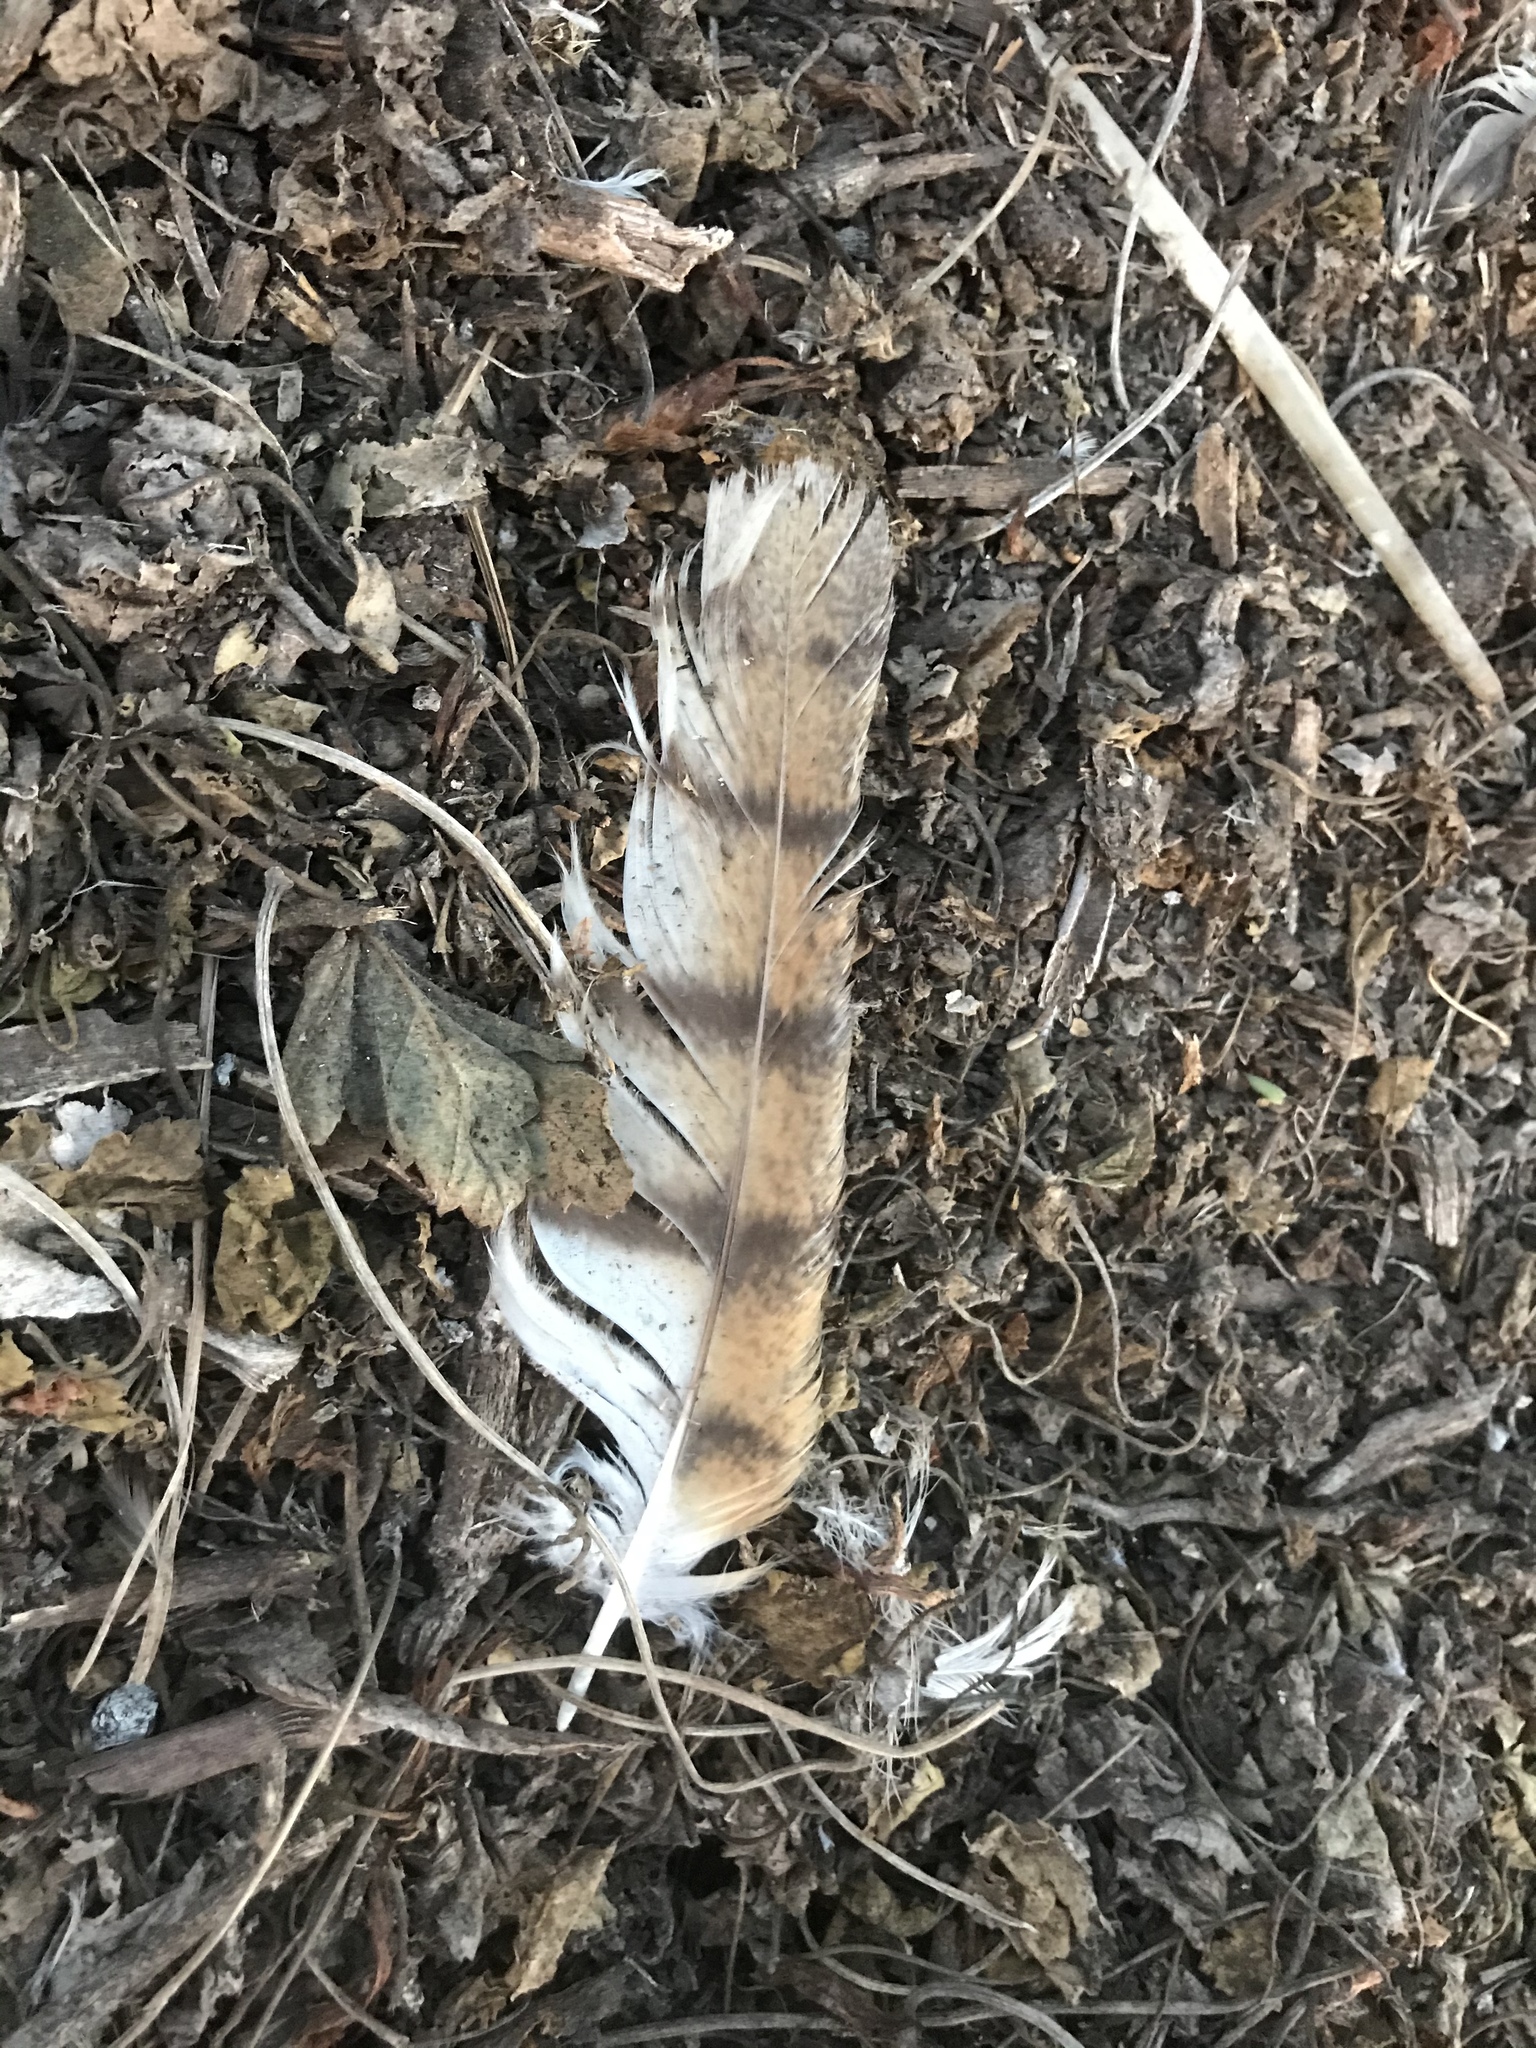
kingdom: Animalia
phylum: Chordata
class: Aves
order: Strigiformes
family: Tytonidae
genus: Tyto
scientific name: Tyto alba
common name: Barn owl
